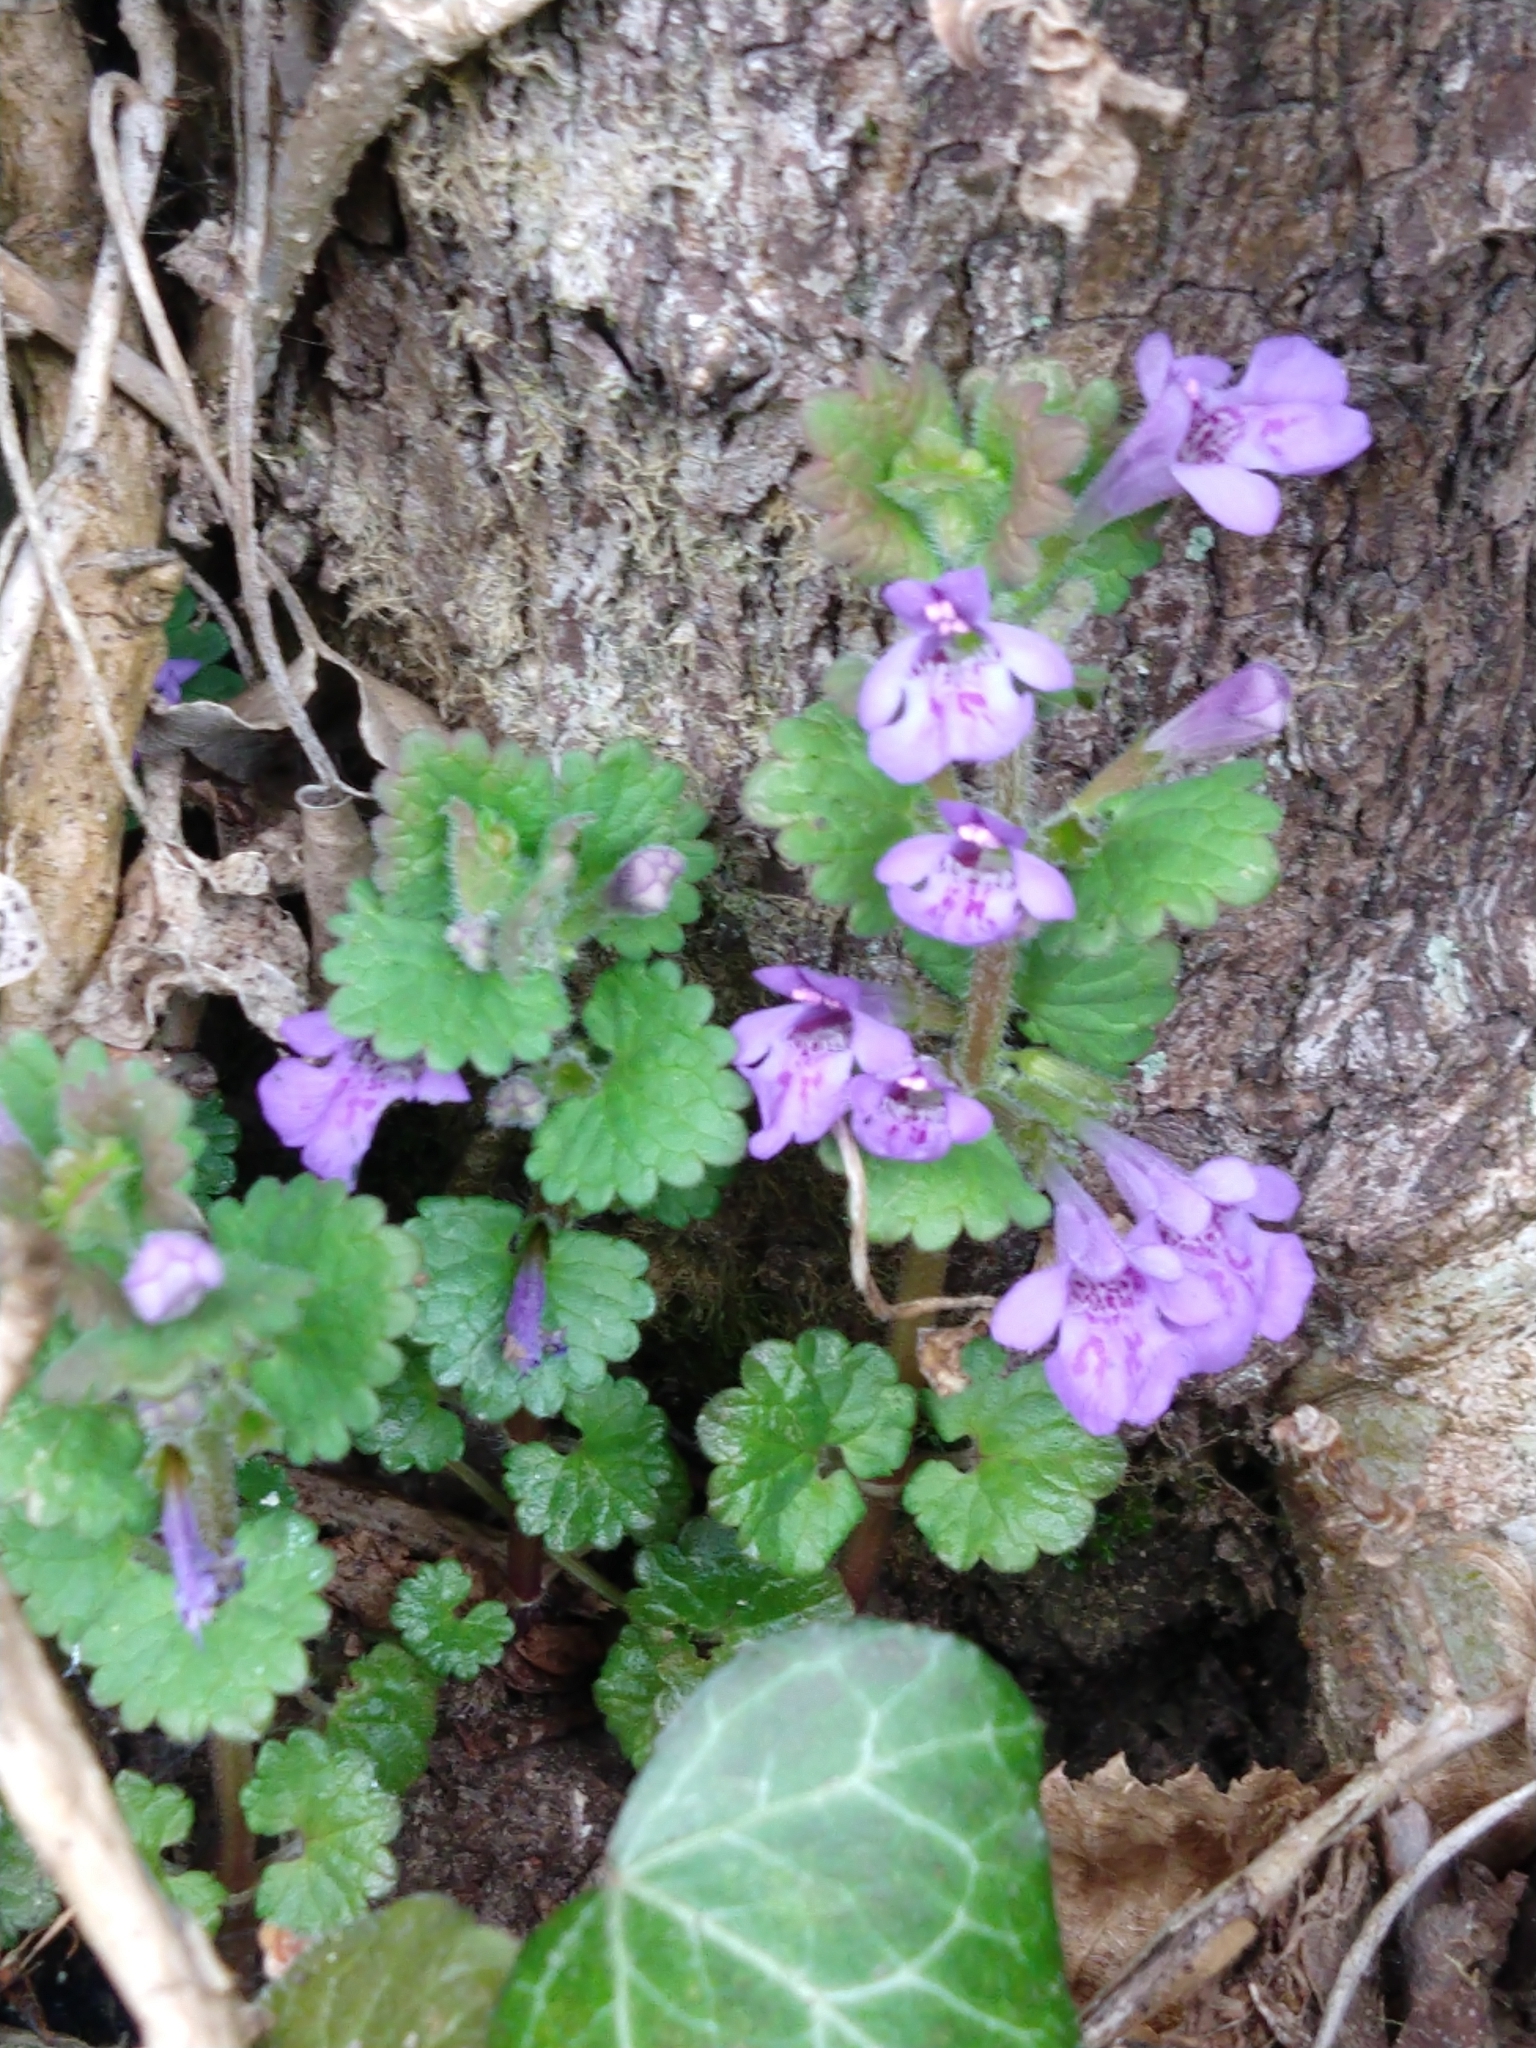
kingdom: Plantae
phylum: Tracheophyta
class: Magnoliopsida
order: Lamiales
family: Lamiaceae
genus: Glechoma
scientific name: Glechoma hederacea
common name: Ground ivy
